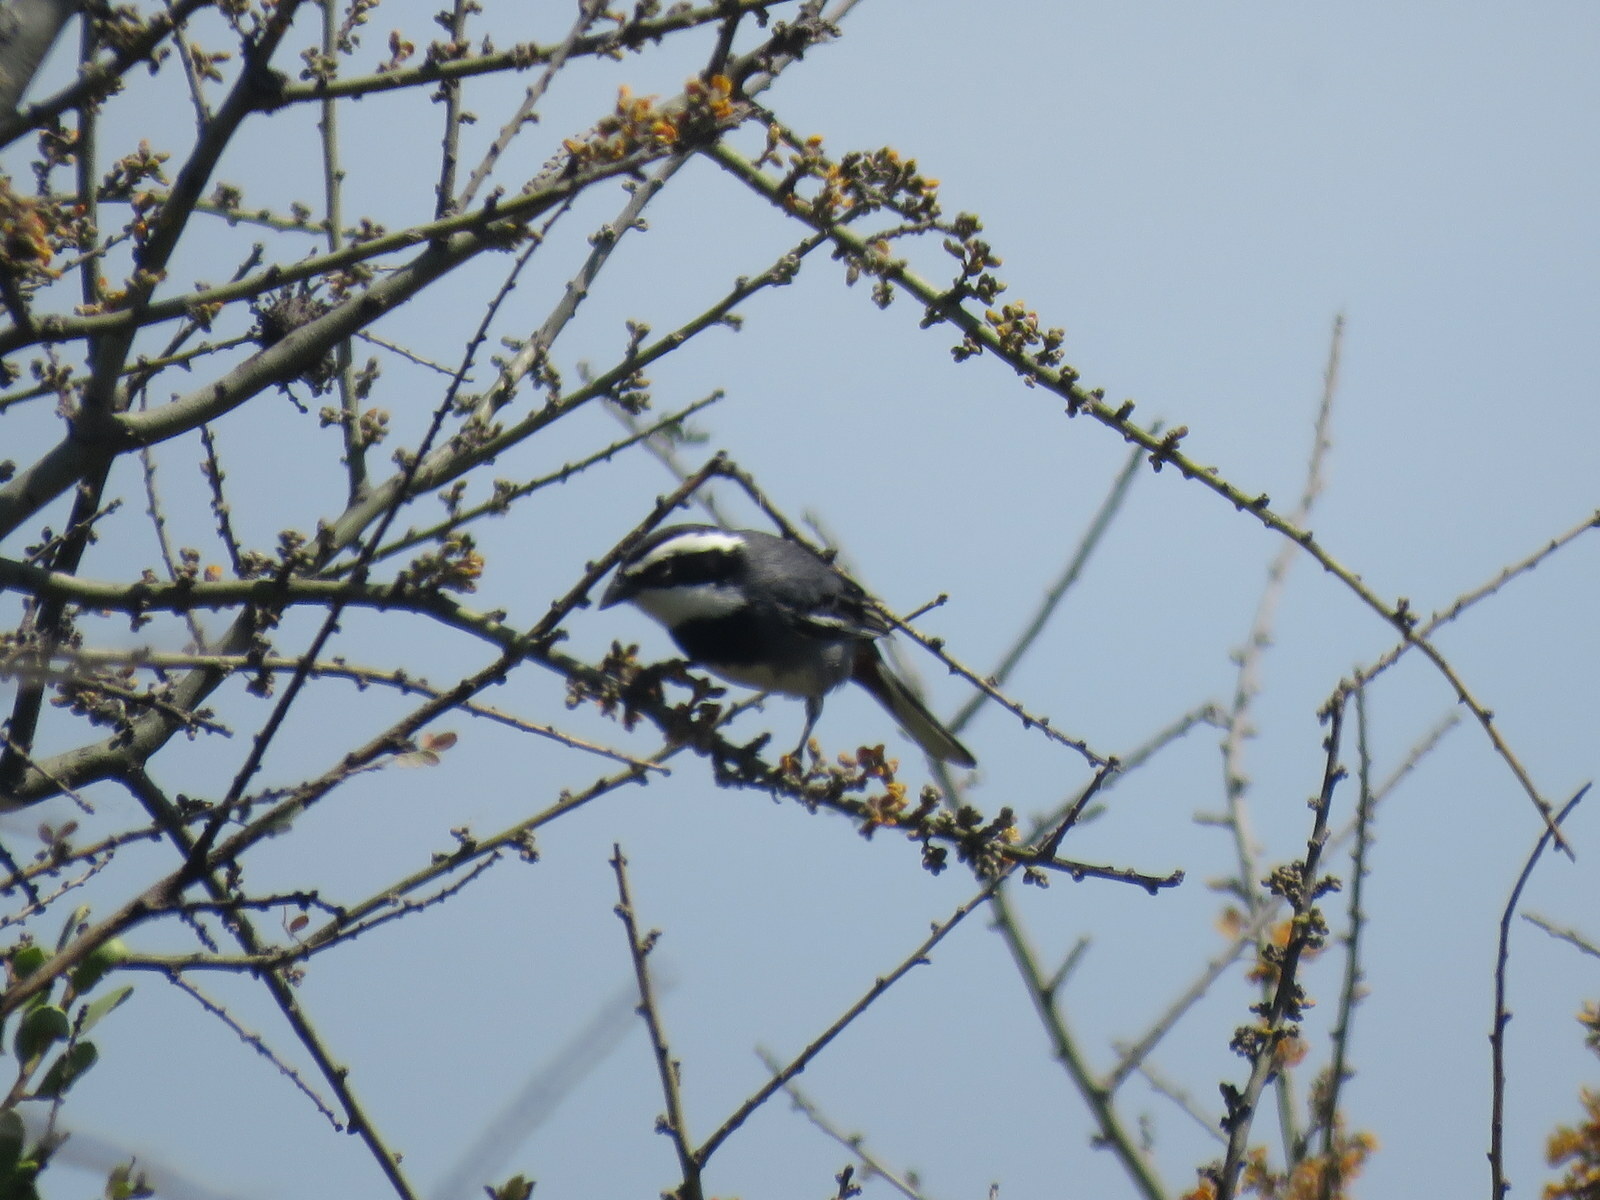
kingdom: Animalia
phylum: Chordata
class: Aves
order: Passeriformes
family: Thraupidae
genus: Microspingus
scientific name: Microspingus torquatus
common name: Ringed warbling-finch
